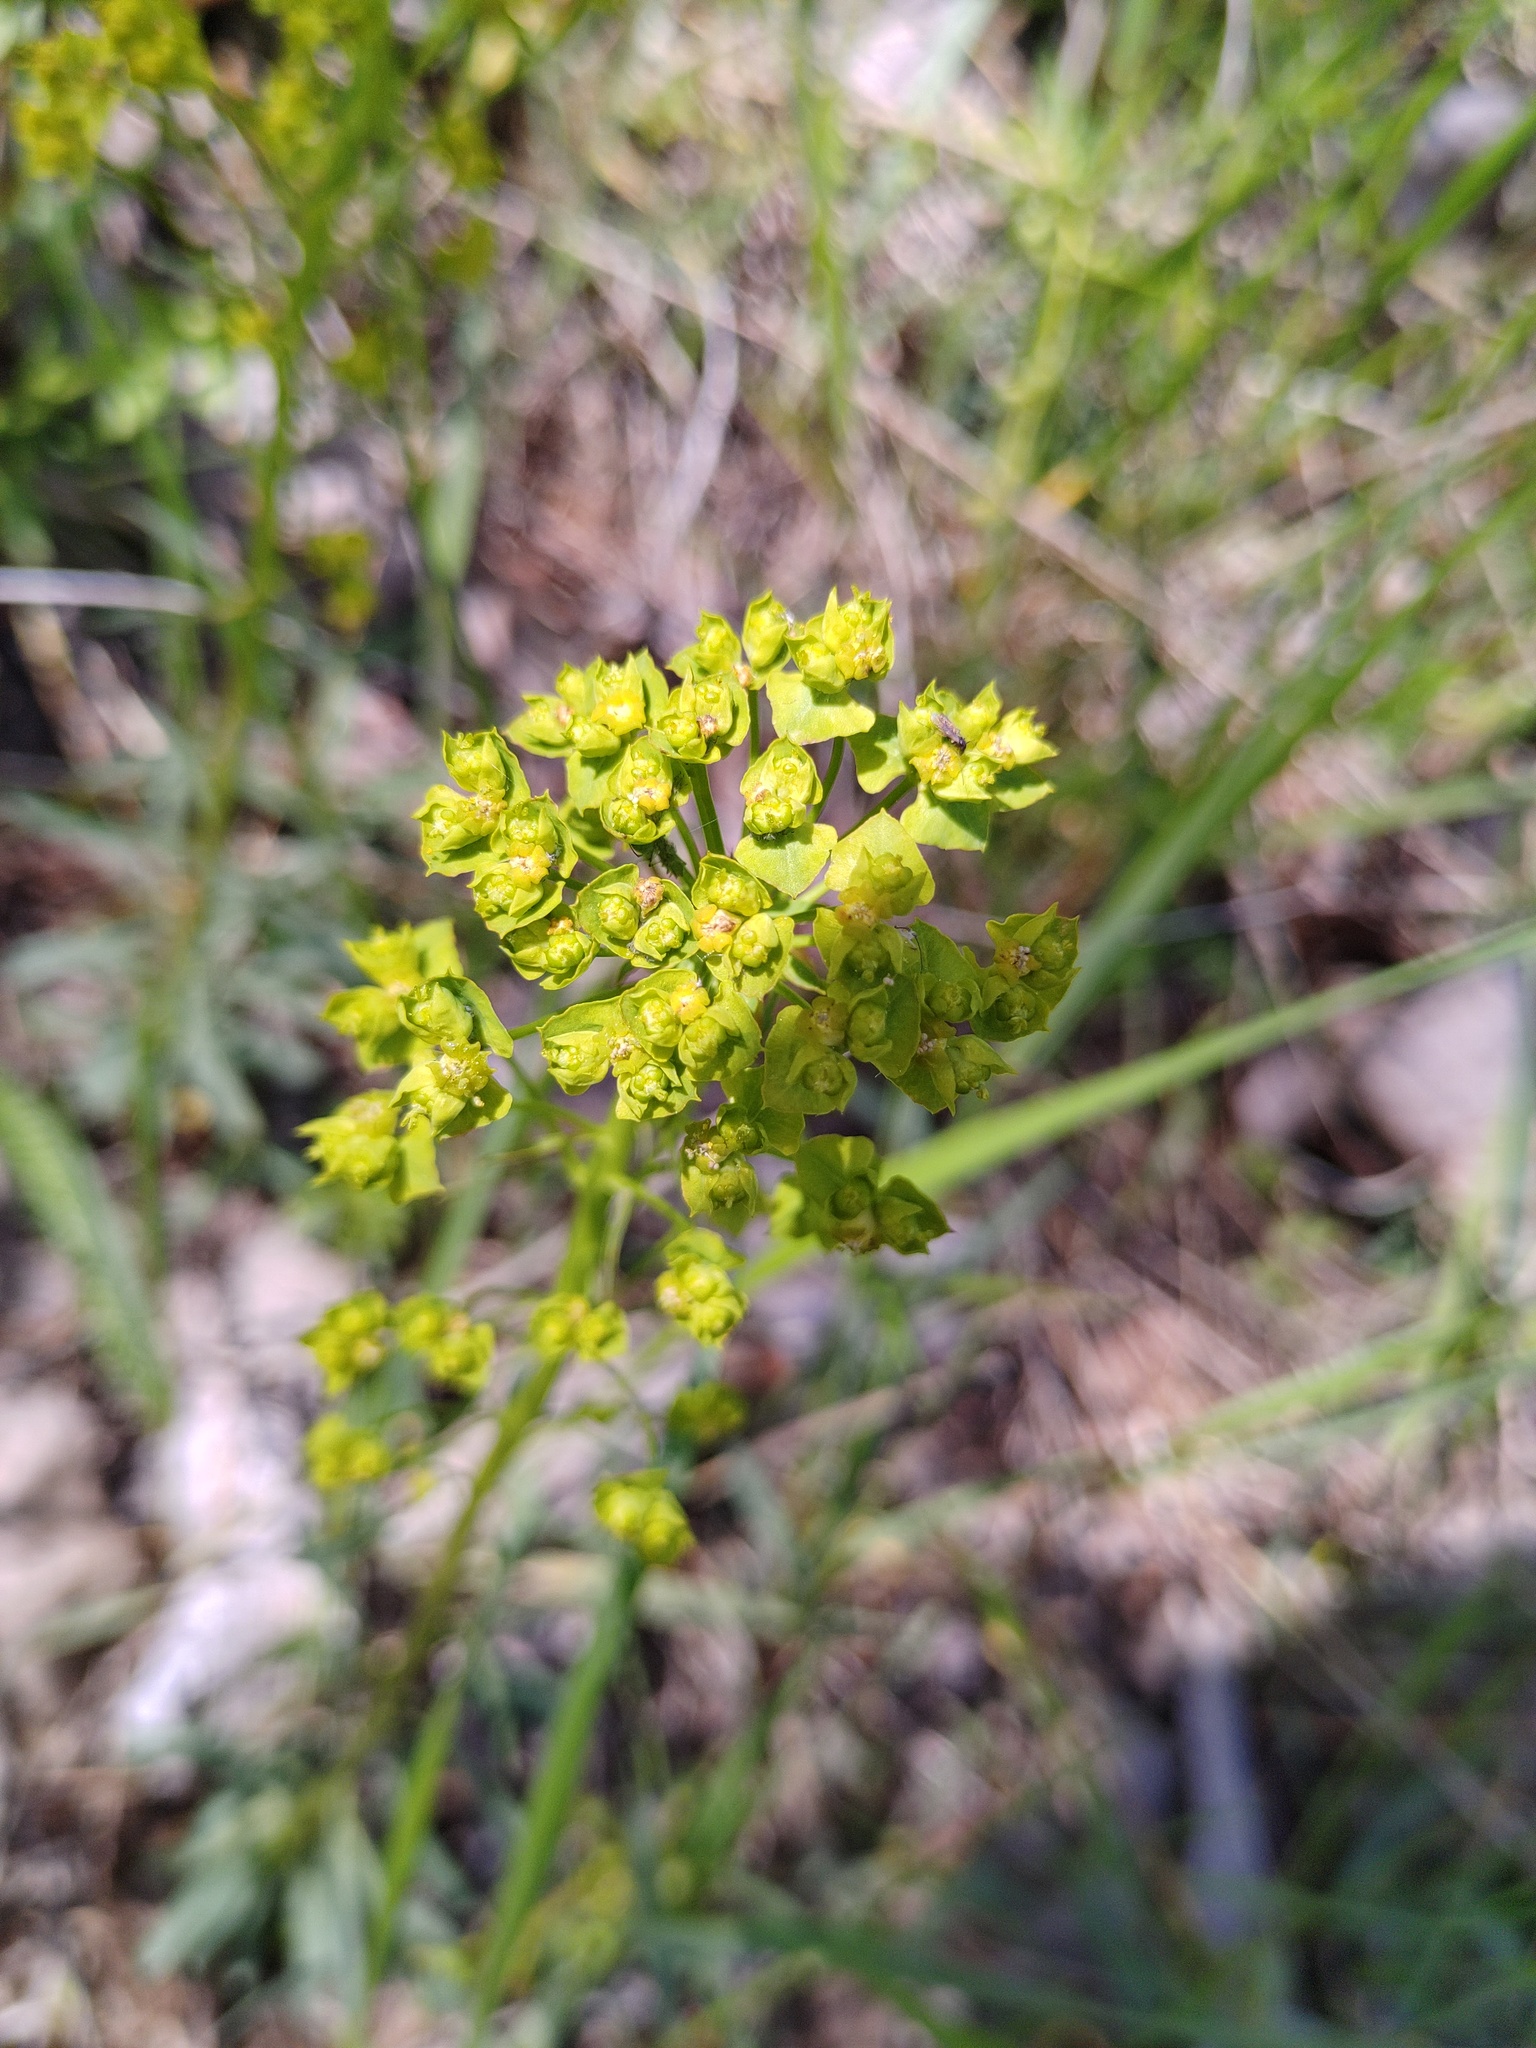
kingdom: Plantae
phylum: Tracheophyta
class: Magnoliopsida
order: Malpighiales
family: Euphorbiaceae
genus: Euphorbia
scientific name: Euphorbia esula
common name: Leafy spurge
